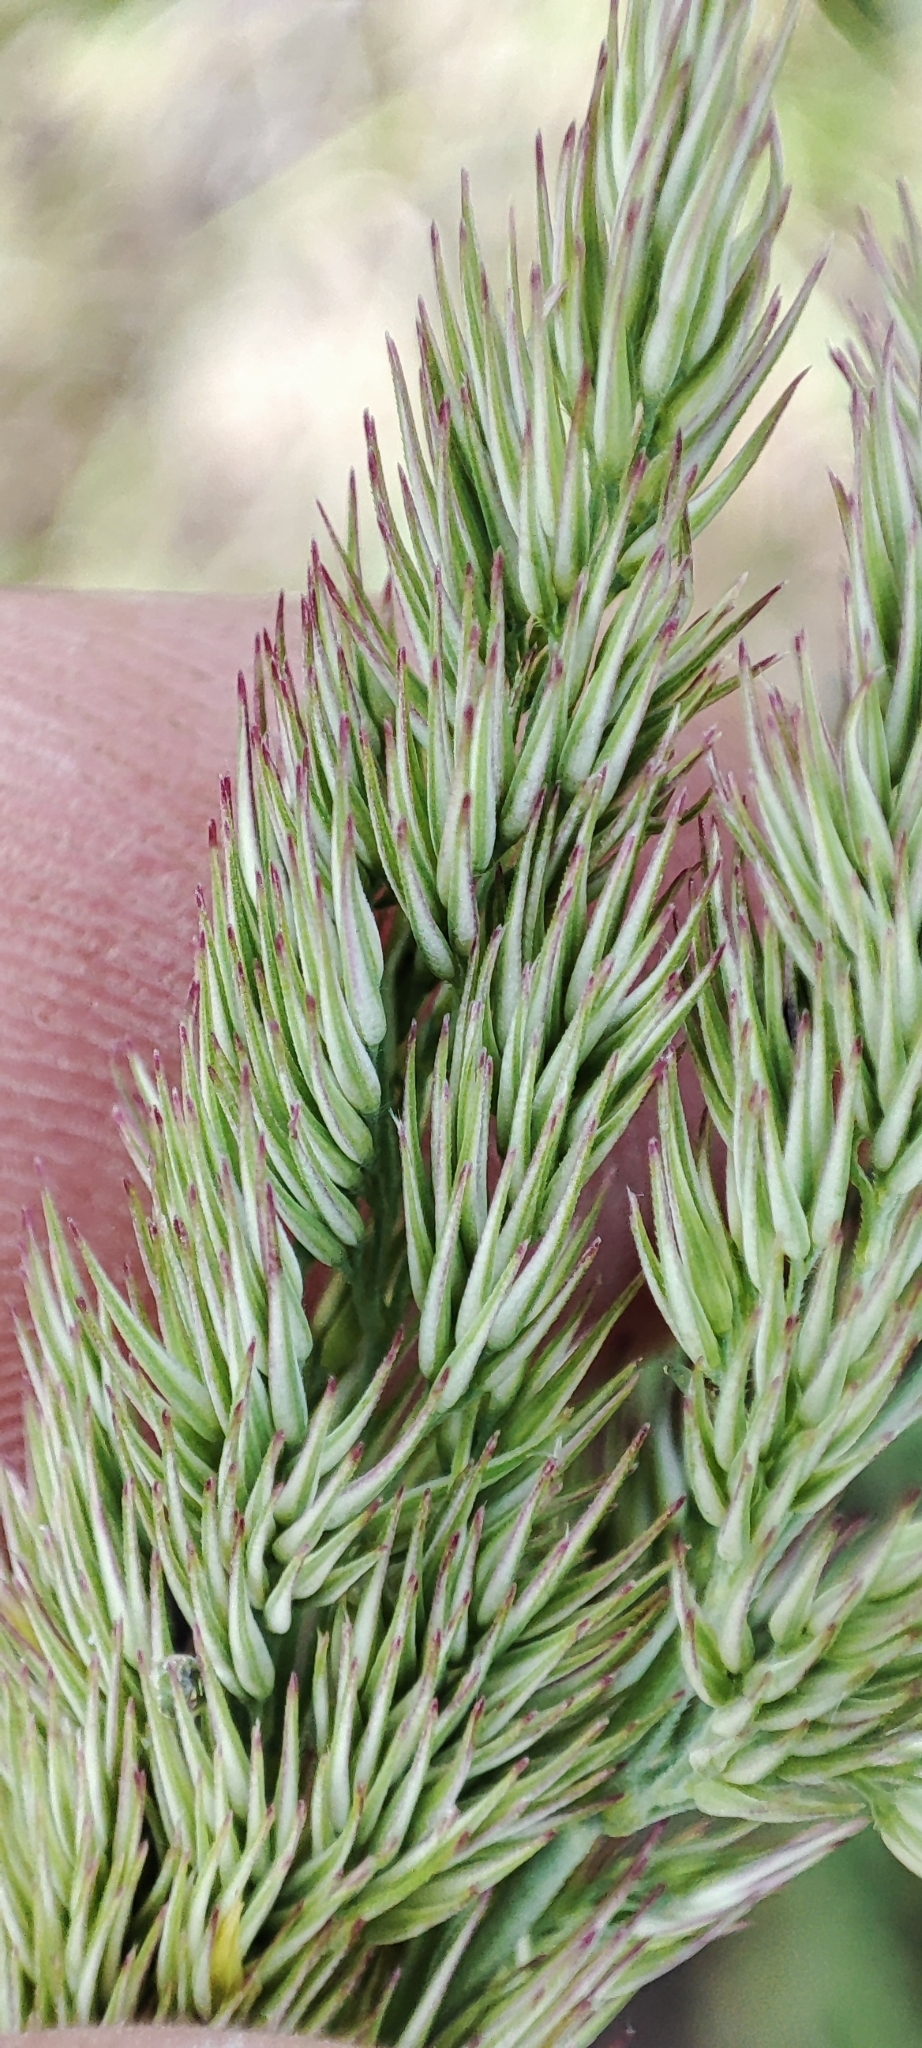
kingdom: Plantae
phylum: Tracheophyta
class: Liliopsida
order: Poales
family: Poaceae
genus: Calamagrostis
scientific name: Calamagrostis epigejos
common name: Wood small-reed
